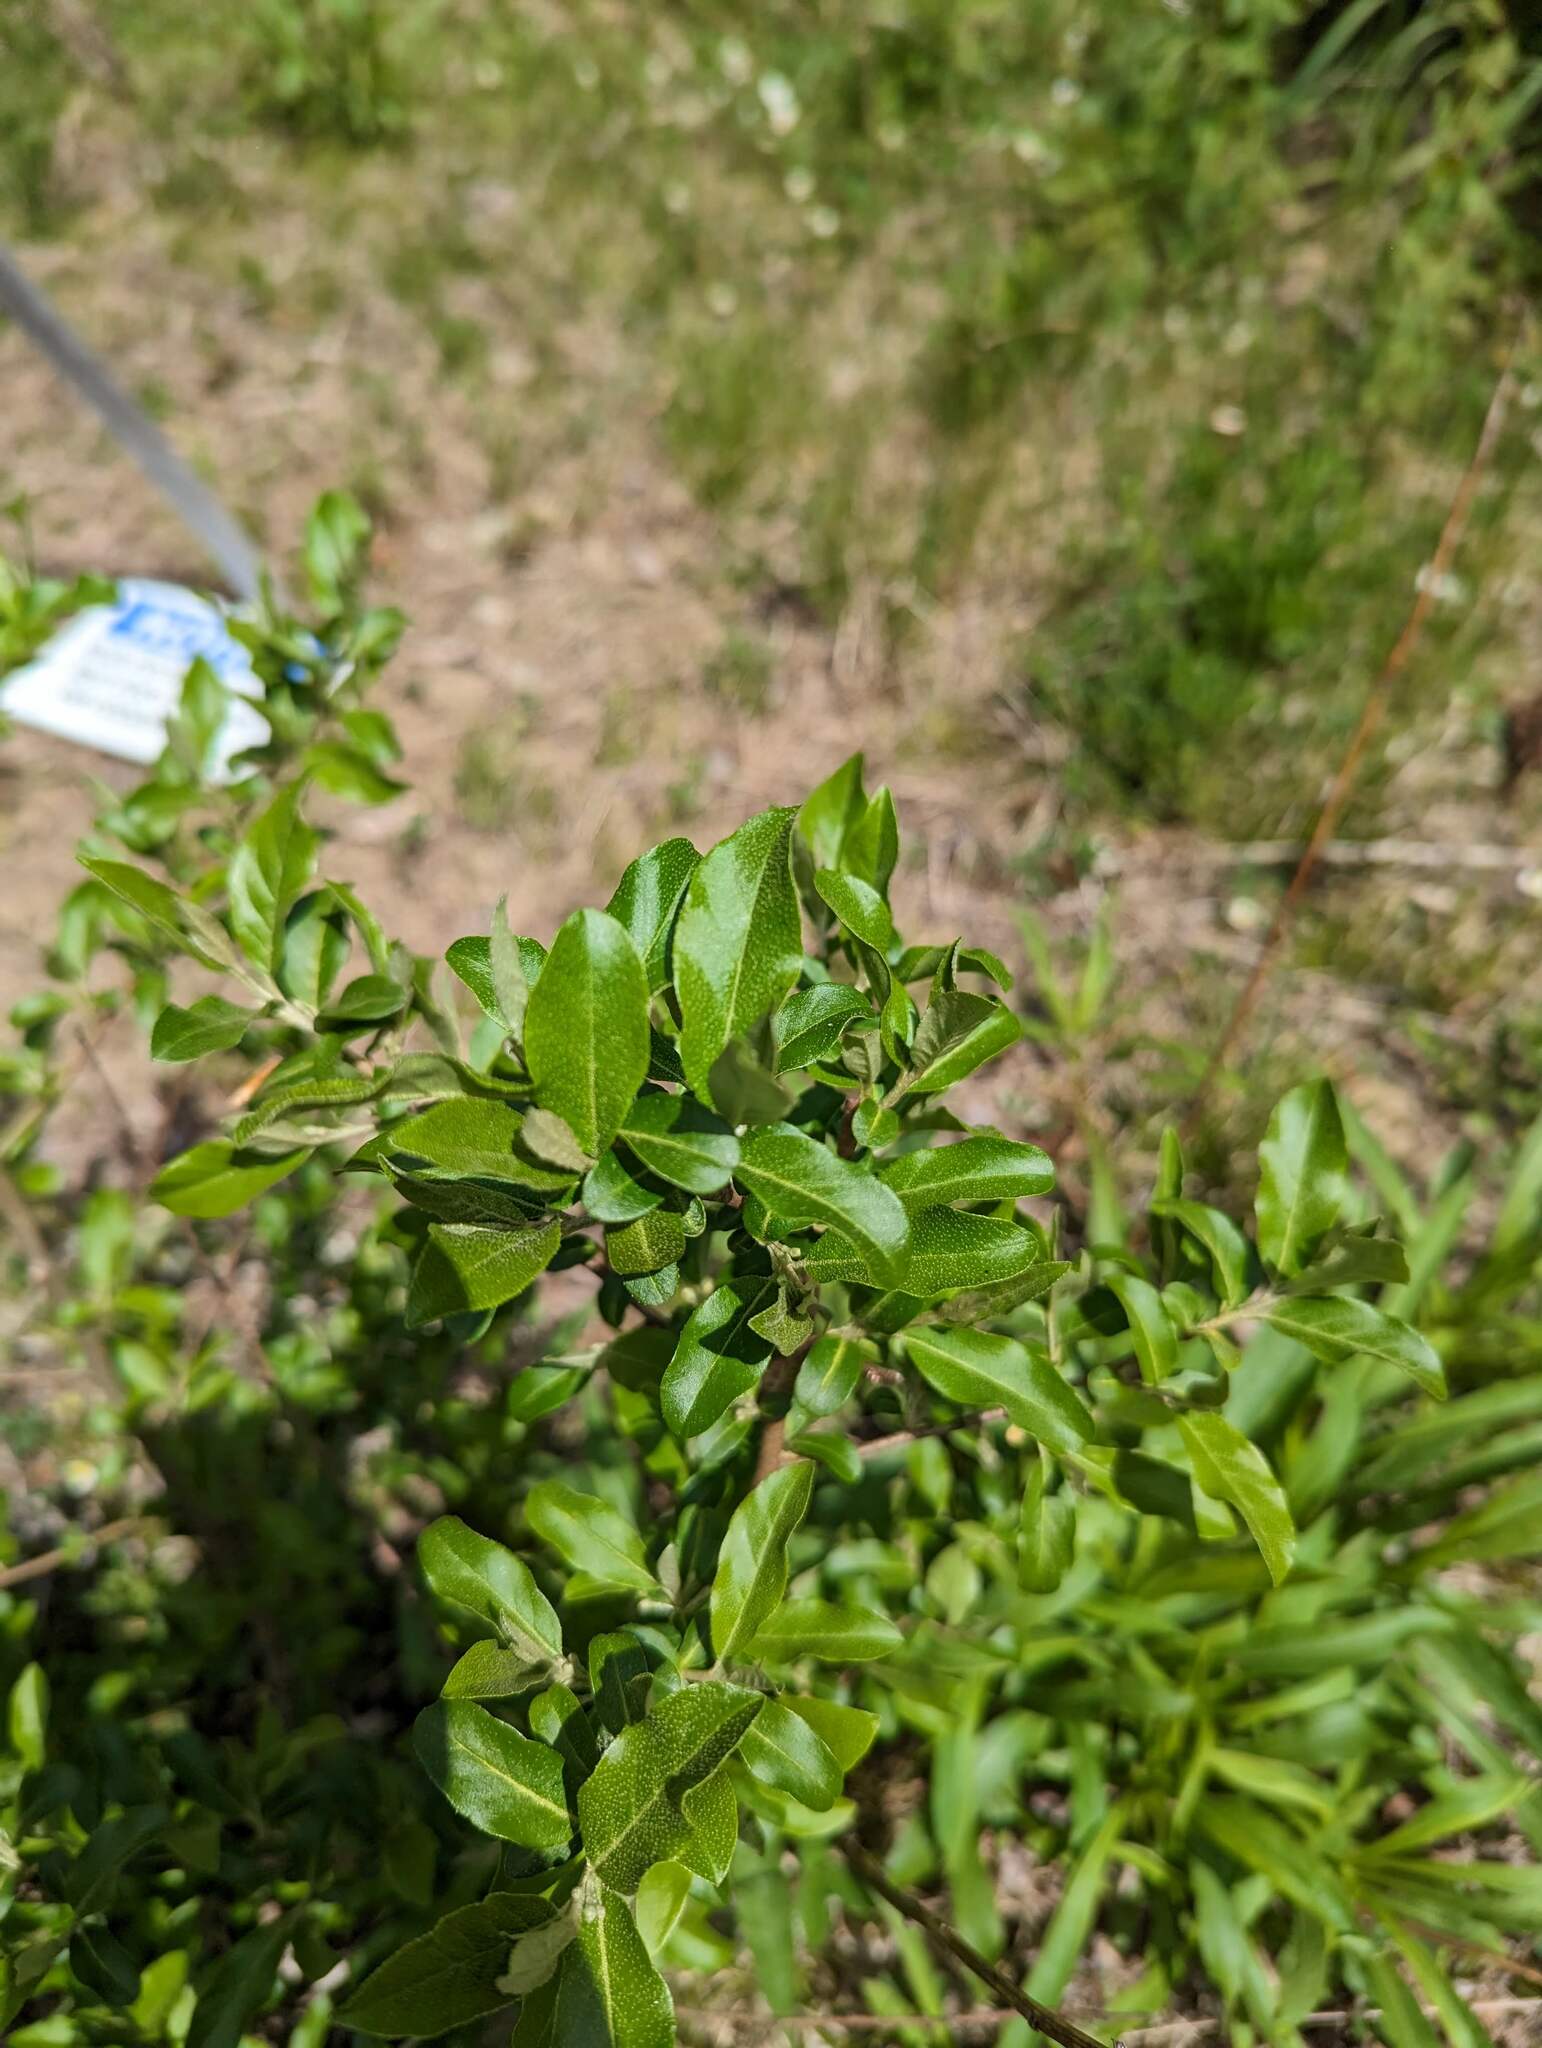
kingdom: Plantae
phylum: Tracheophyta
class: Magnoliopsida
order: Rosales
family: Elaeagnaceae
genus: Elaeagnus
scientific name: Elaeagnus umbellata
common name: Autumn olive
